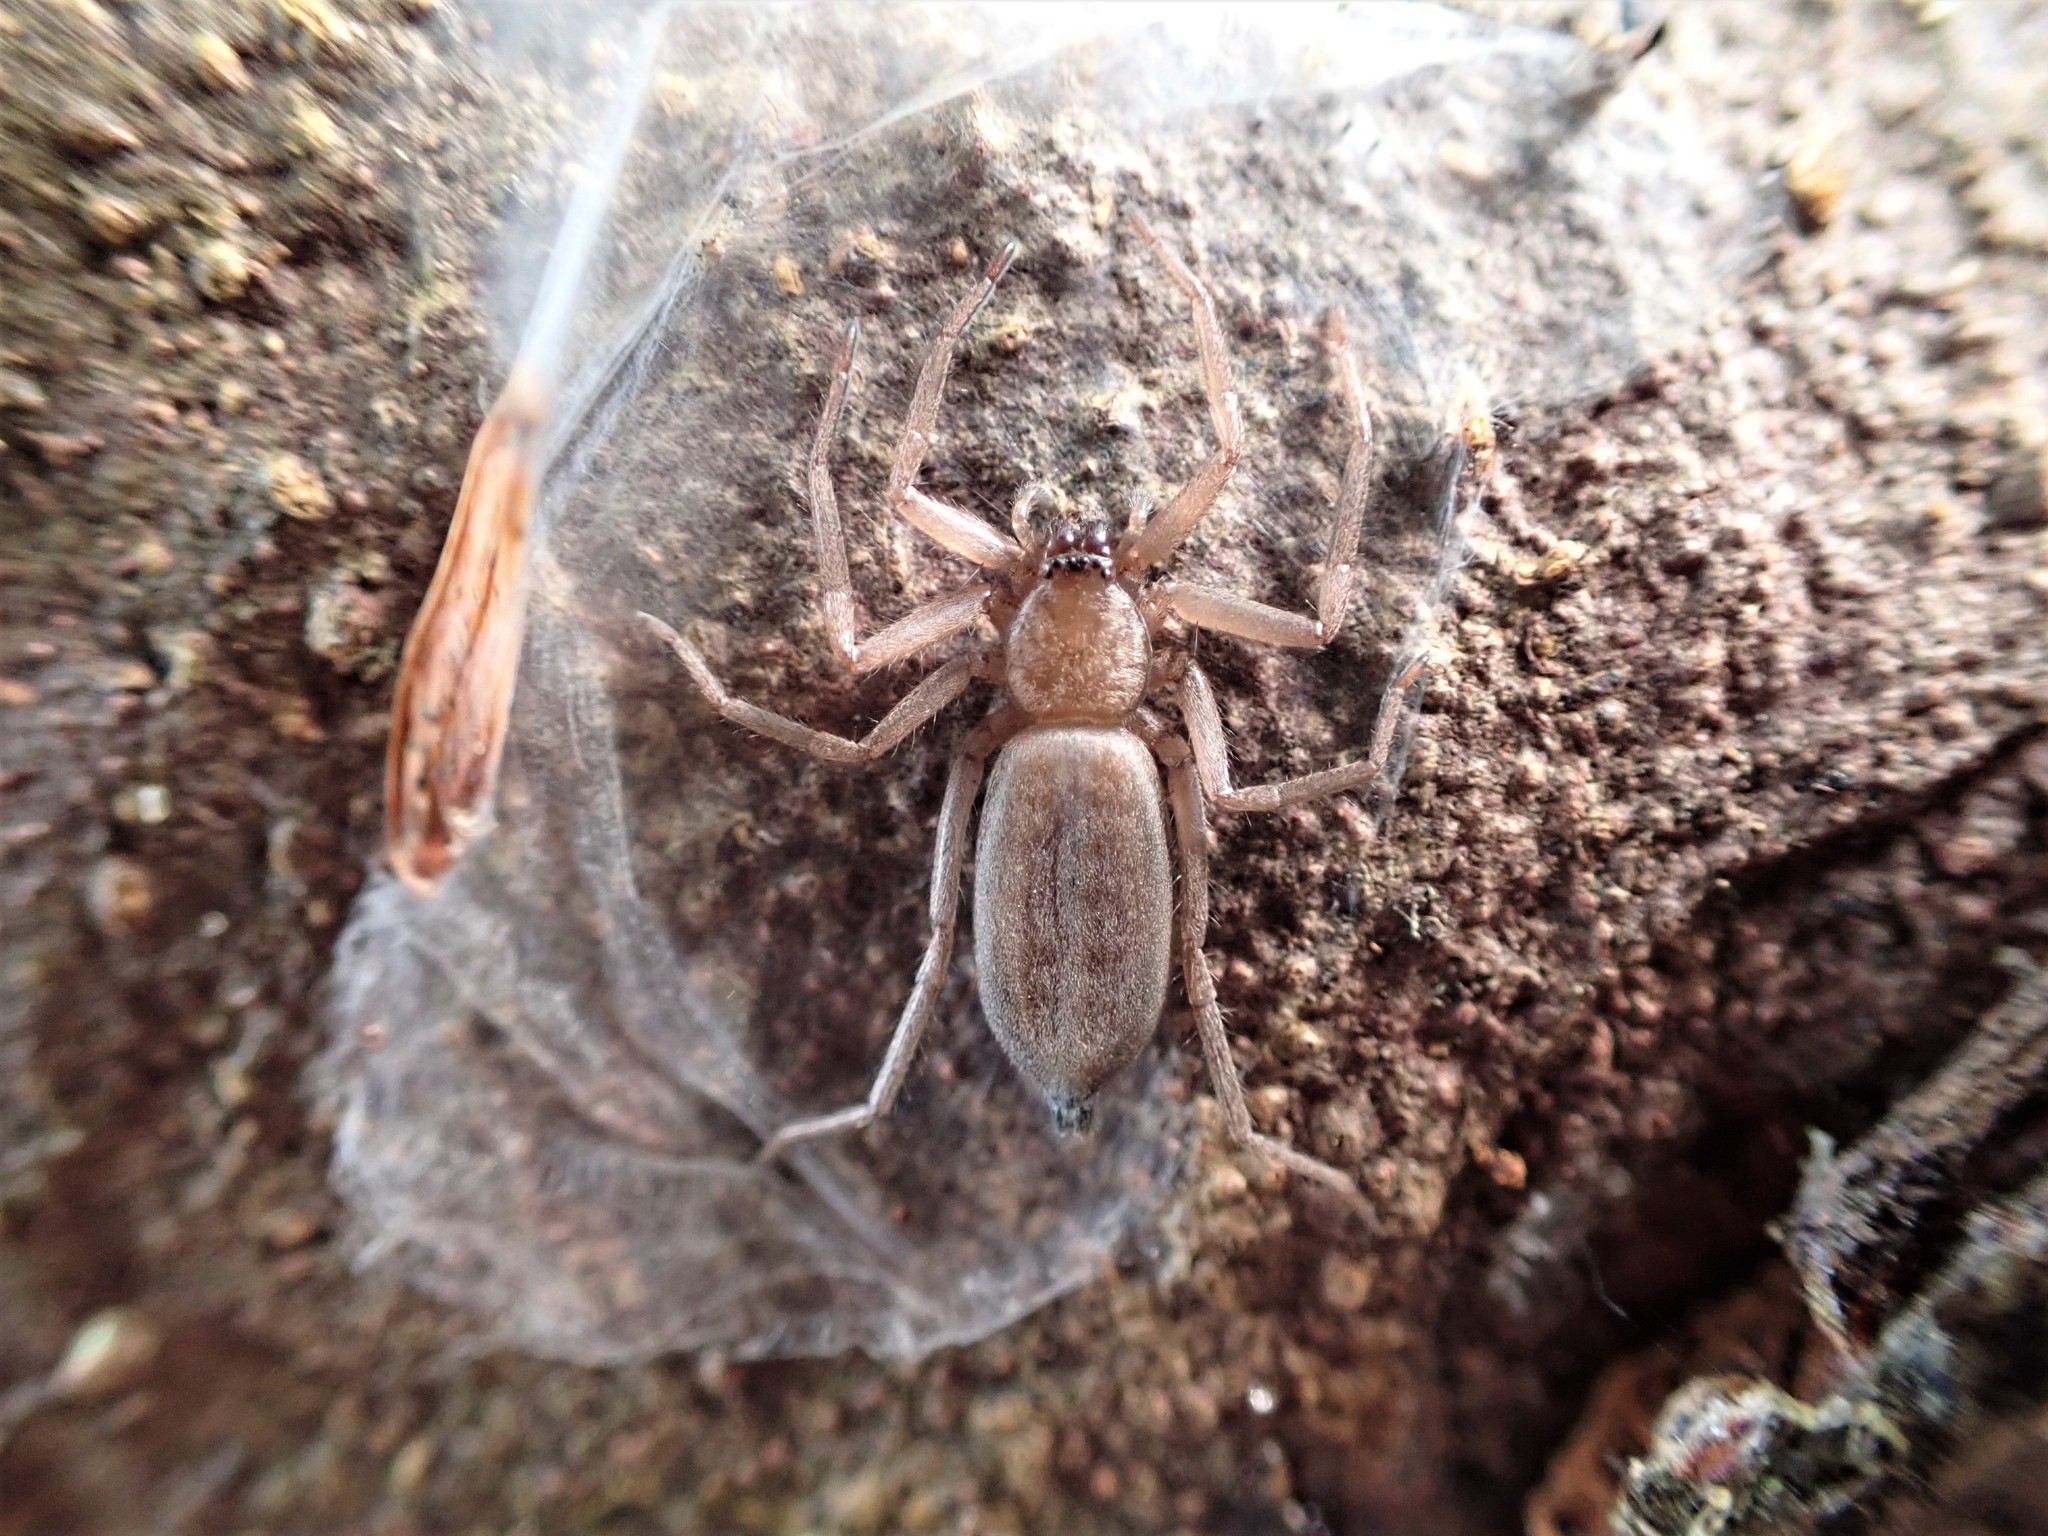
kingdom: Animalia
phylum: Arthropoda
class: Arachnida
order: Araneae
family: Trochanteriidae
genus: Hemicloea
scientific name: Hemicloea rogenhoferi
